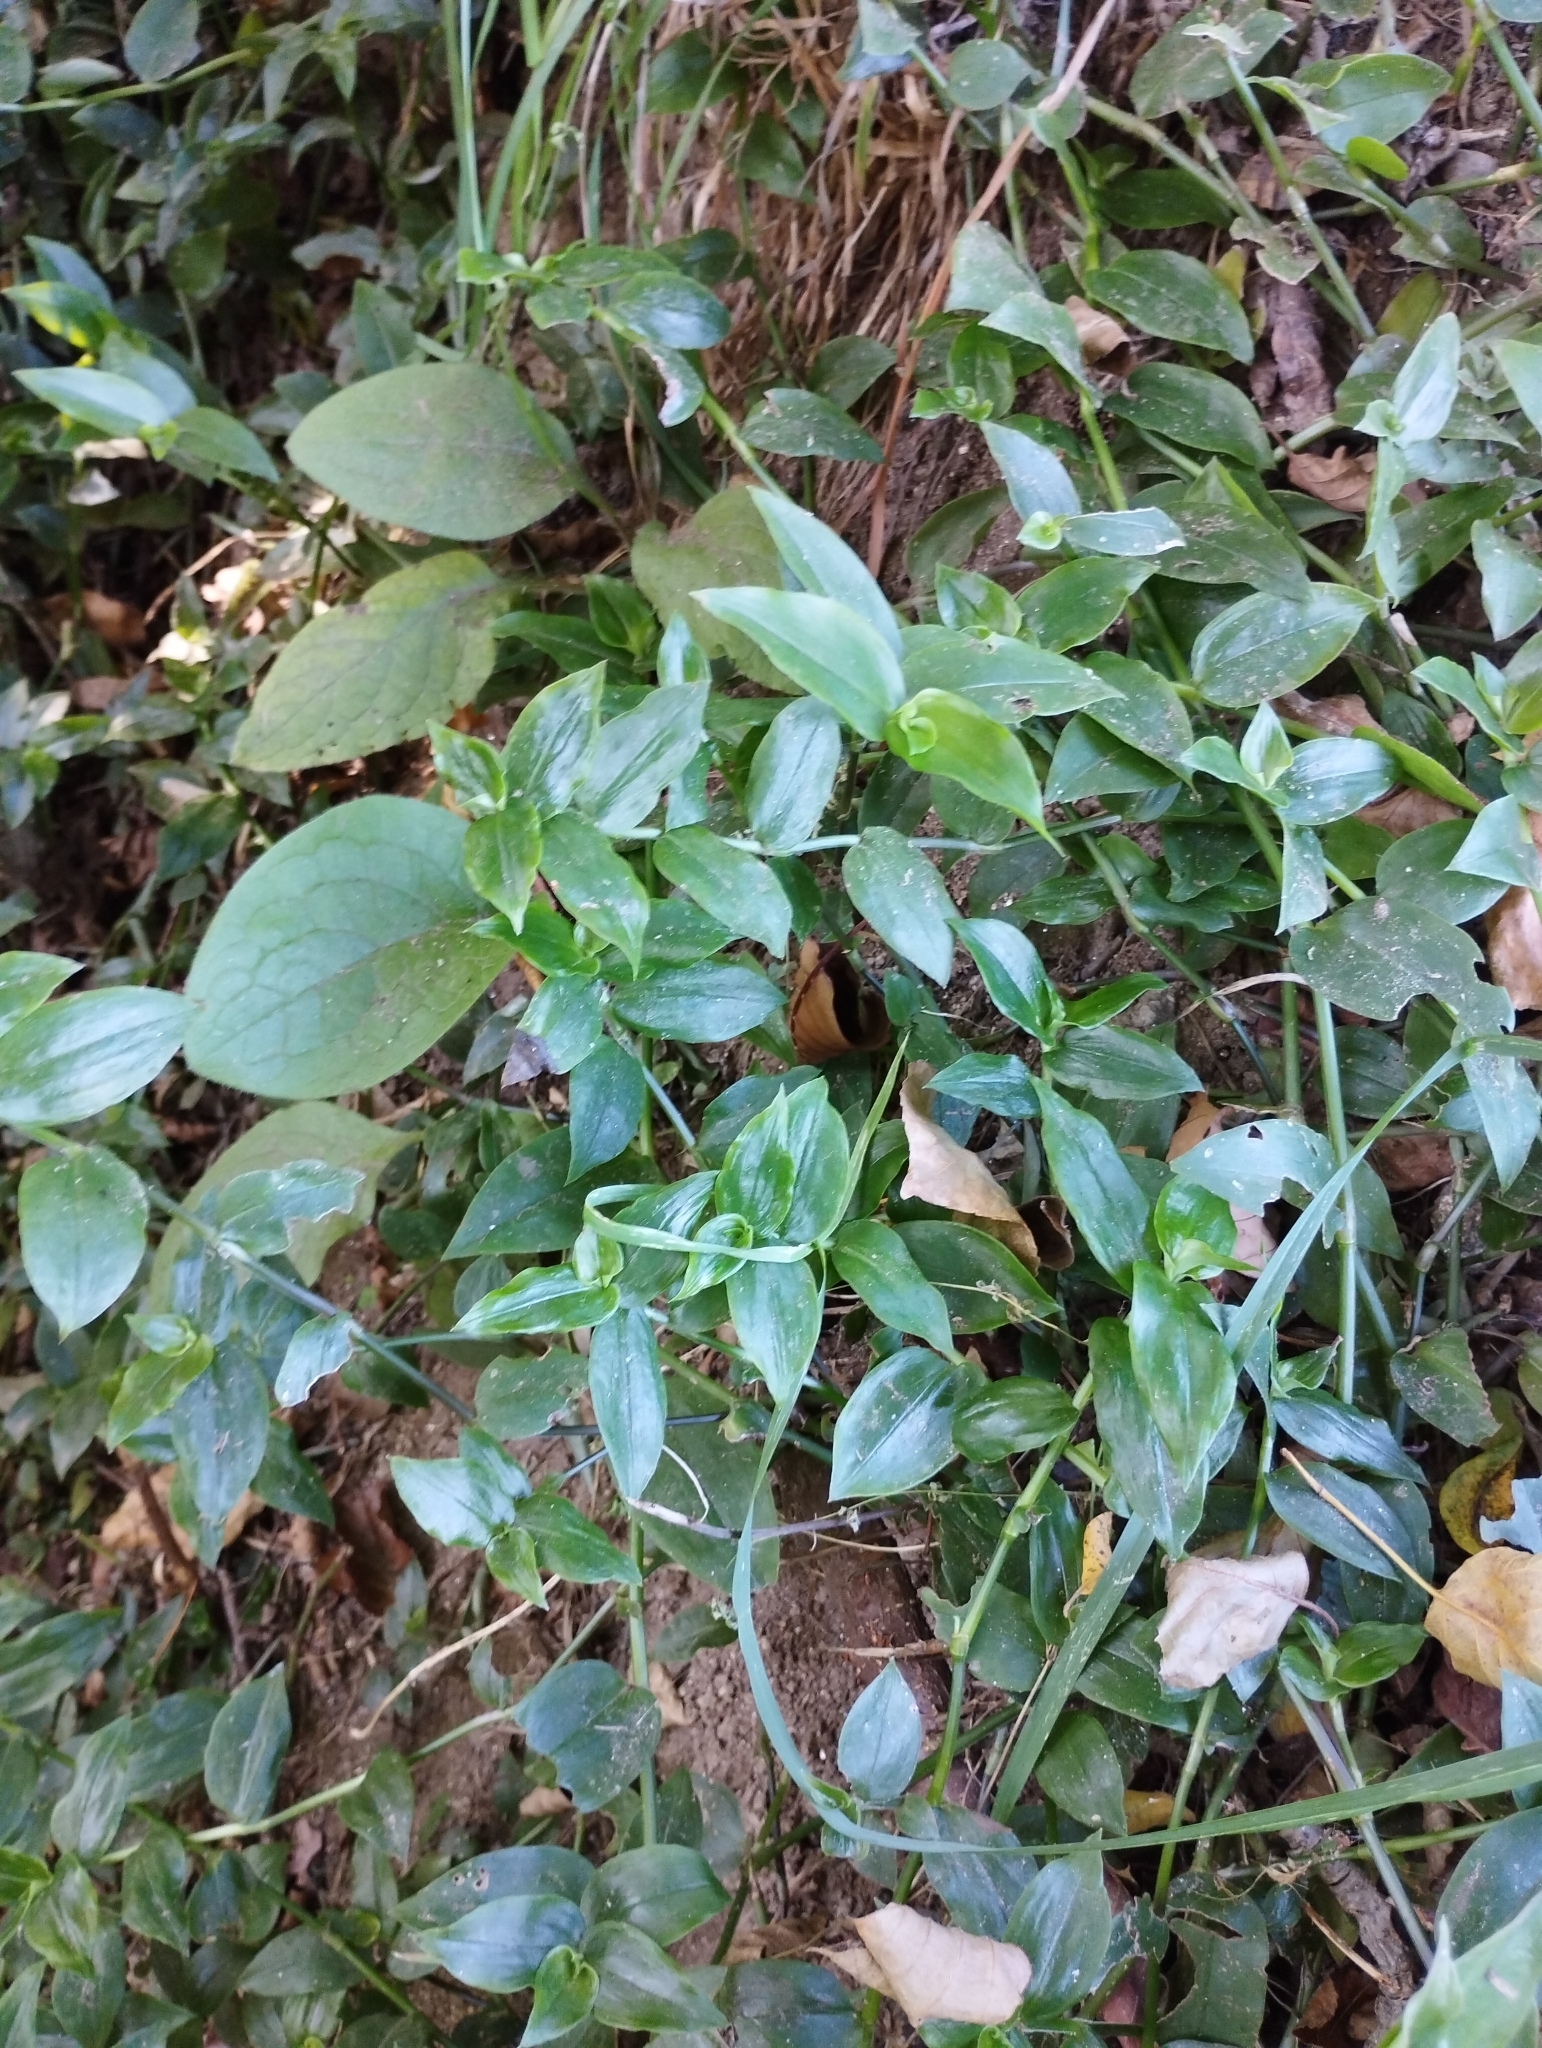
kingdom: Plantae
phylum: Tracheophyta
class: Liliopsida
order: Commelinales
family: Commelinaceae
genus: Tradescantia
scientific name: Tradescantia fluminensis
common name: Wandering-jew
